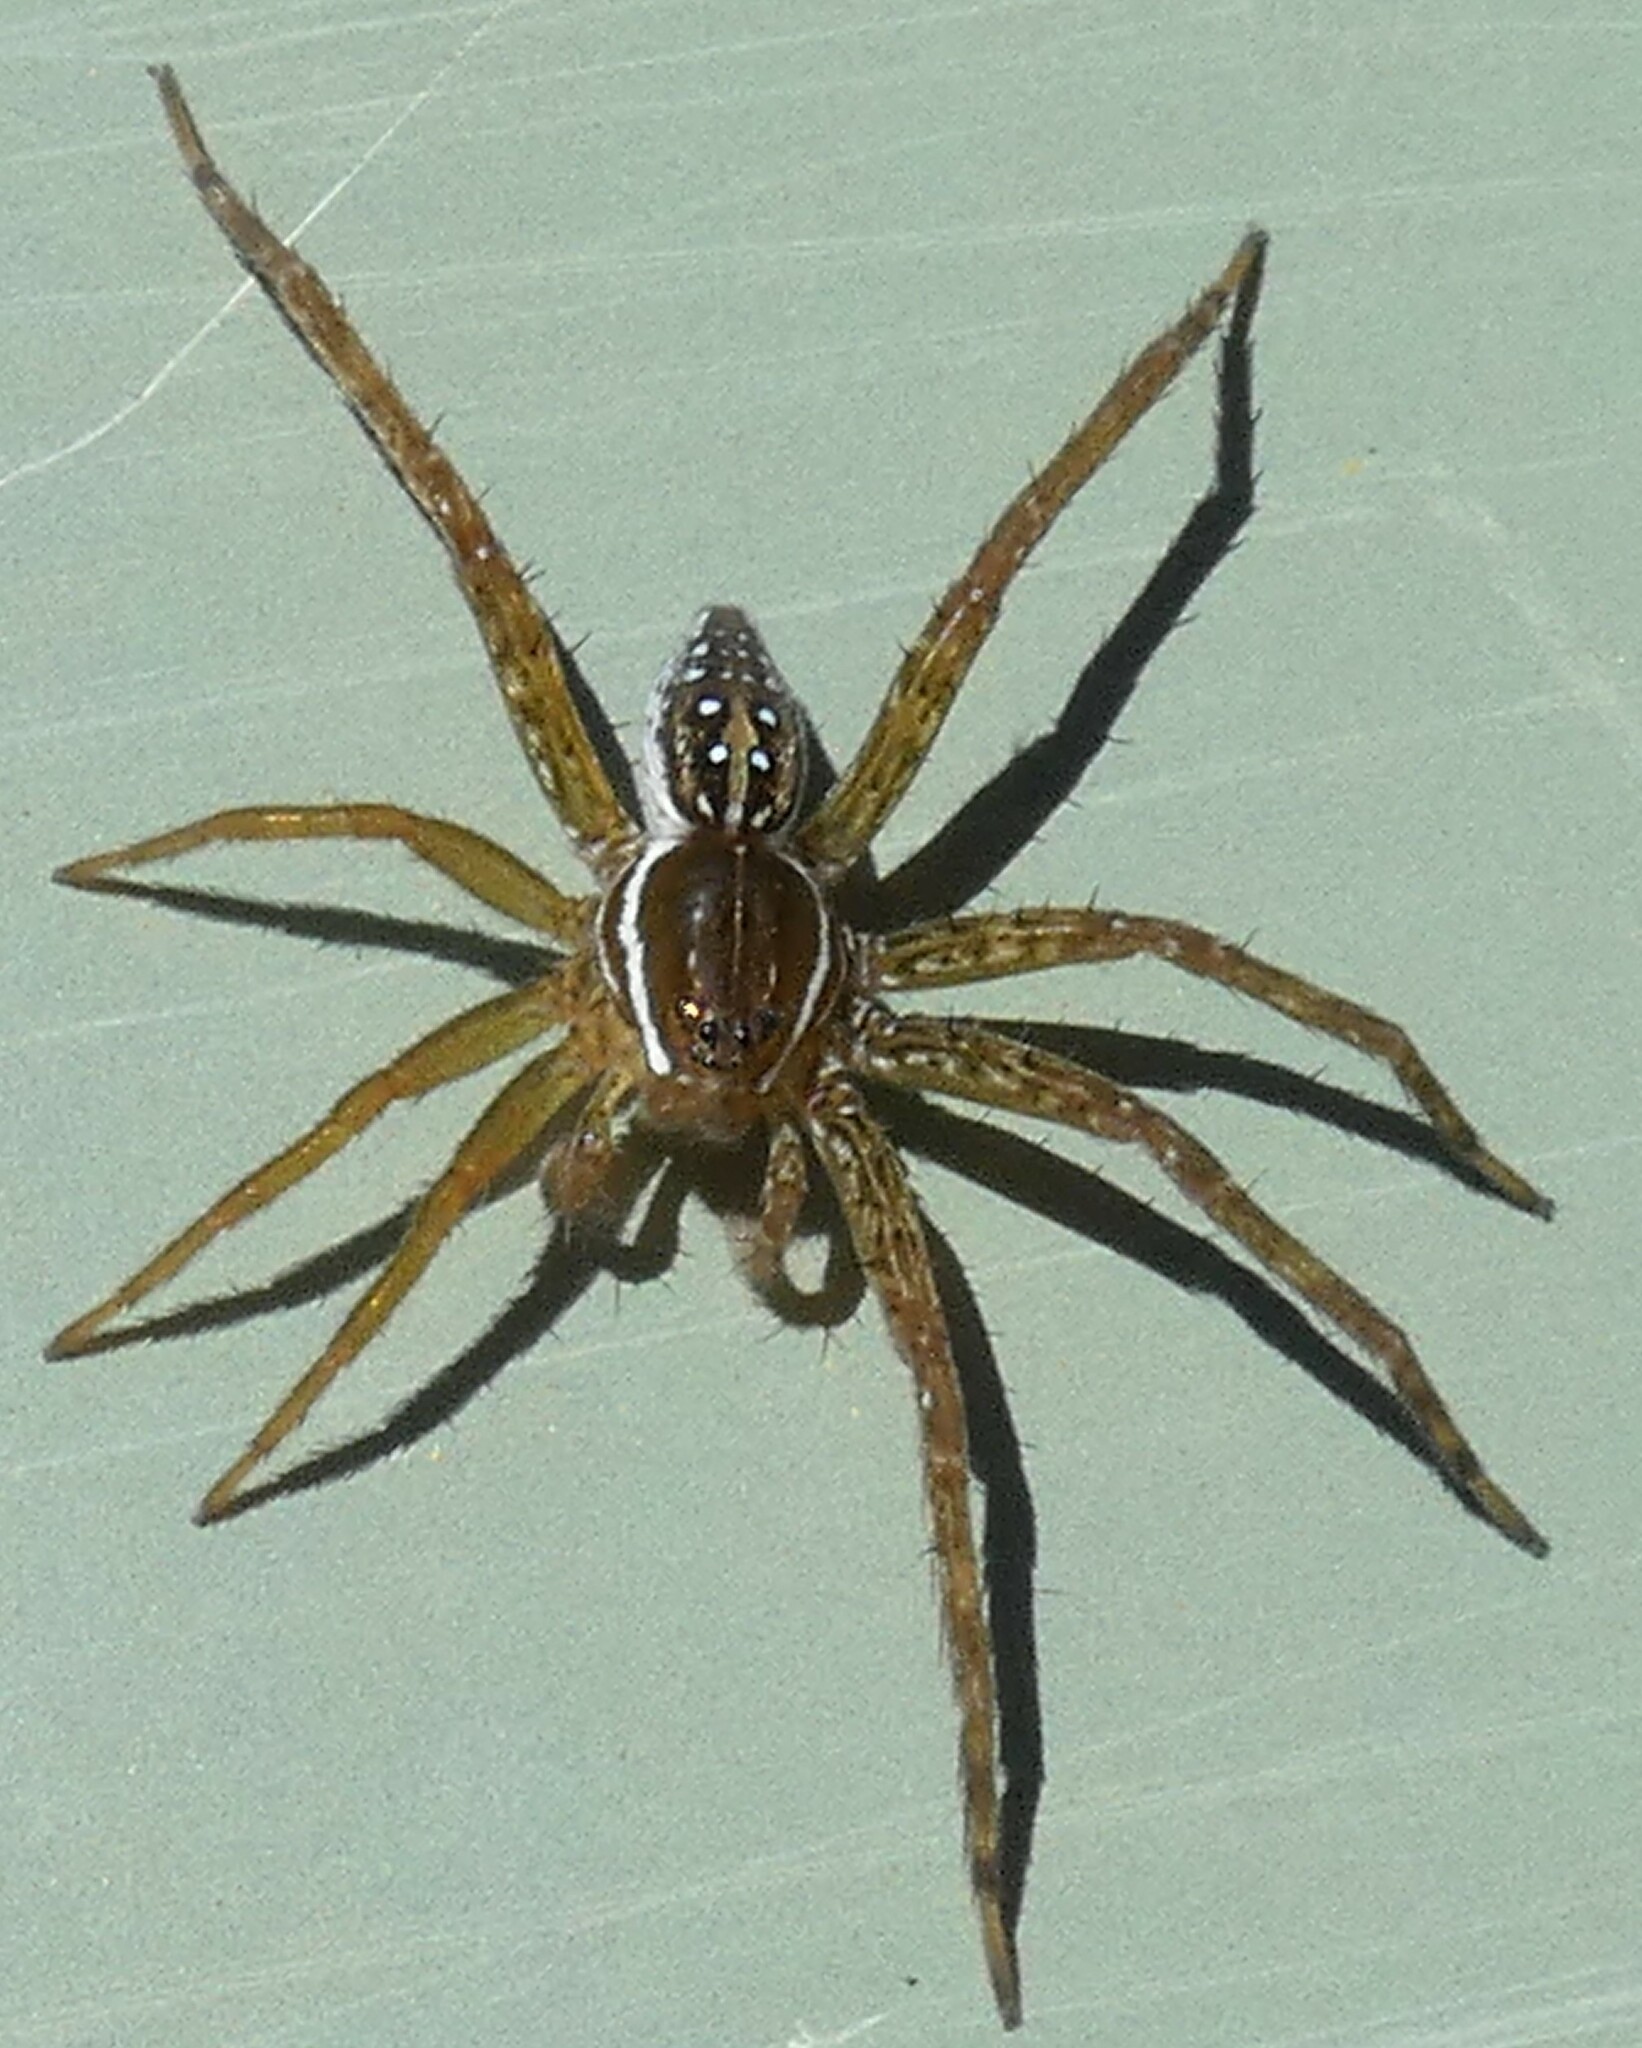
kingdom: Animalia
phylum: Arthropoda
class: Arachnida
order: Araneae
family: Pisauridae
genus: Dolomedes
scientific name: Dolomedes triton
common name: Six-spotted fishing spider
